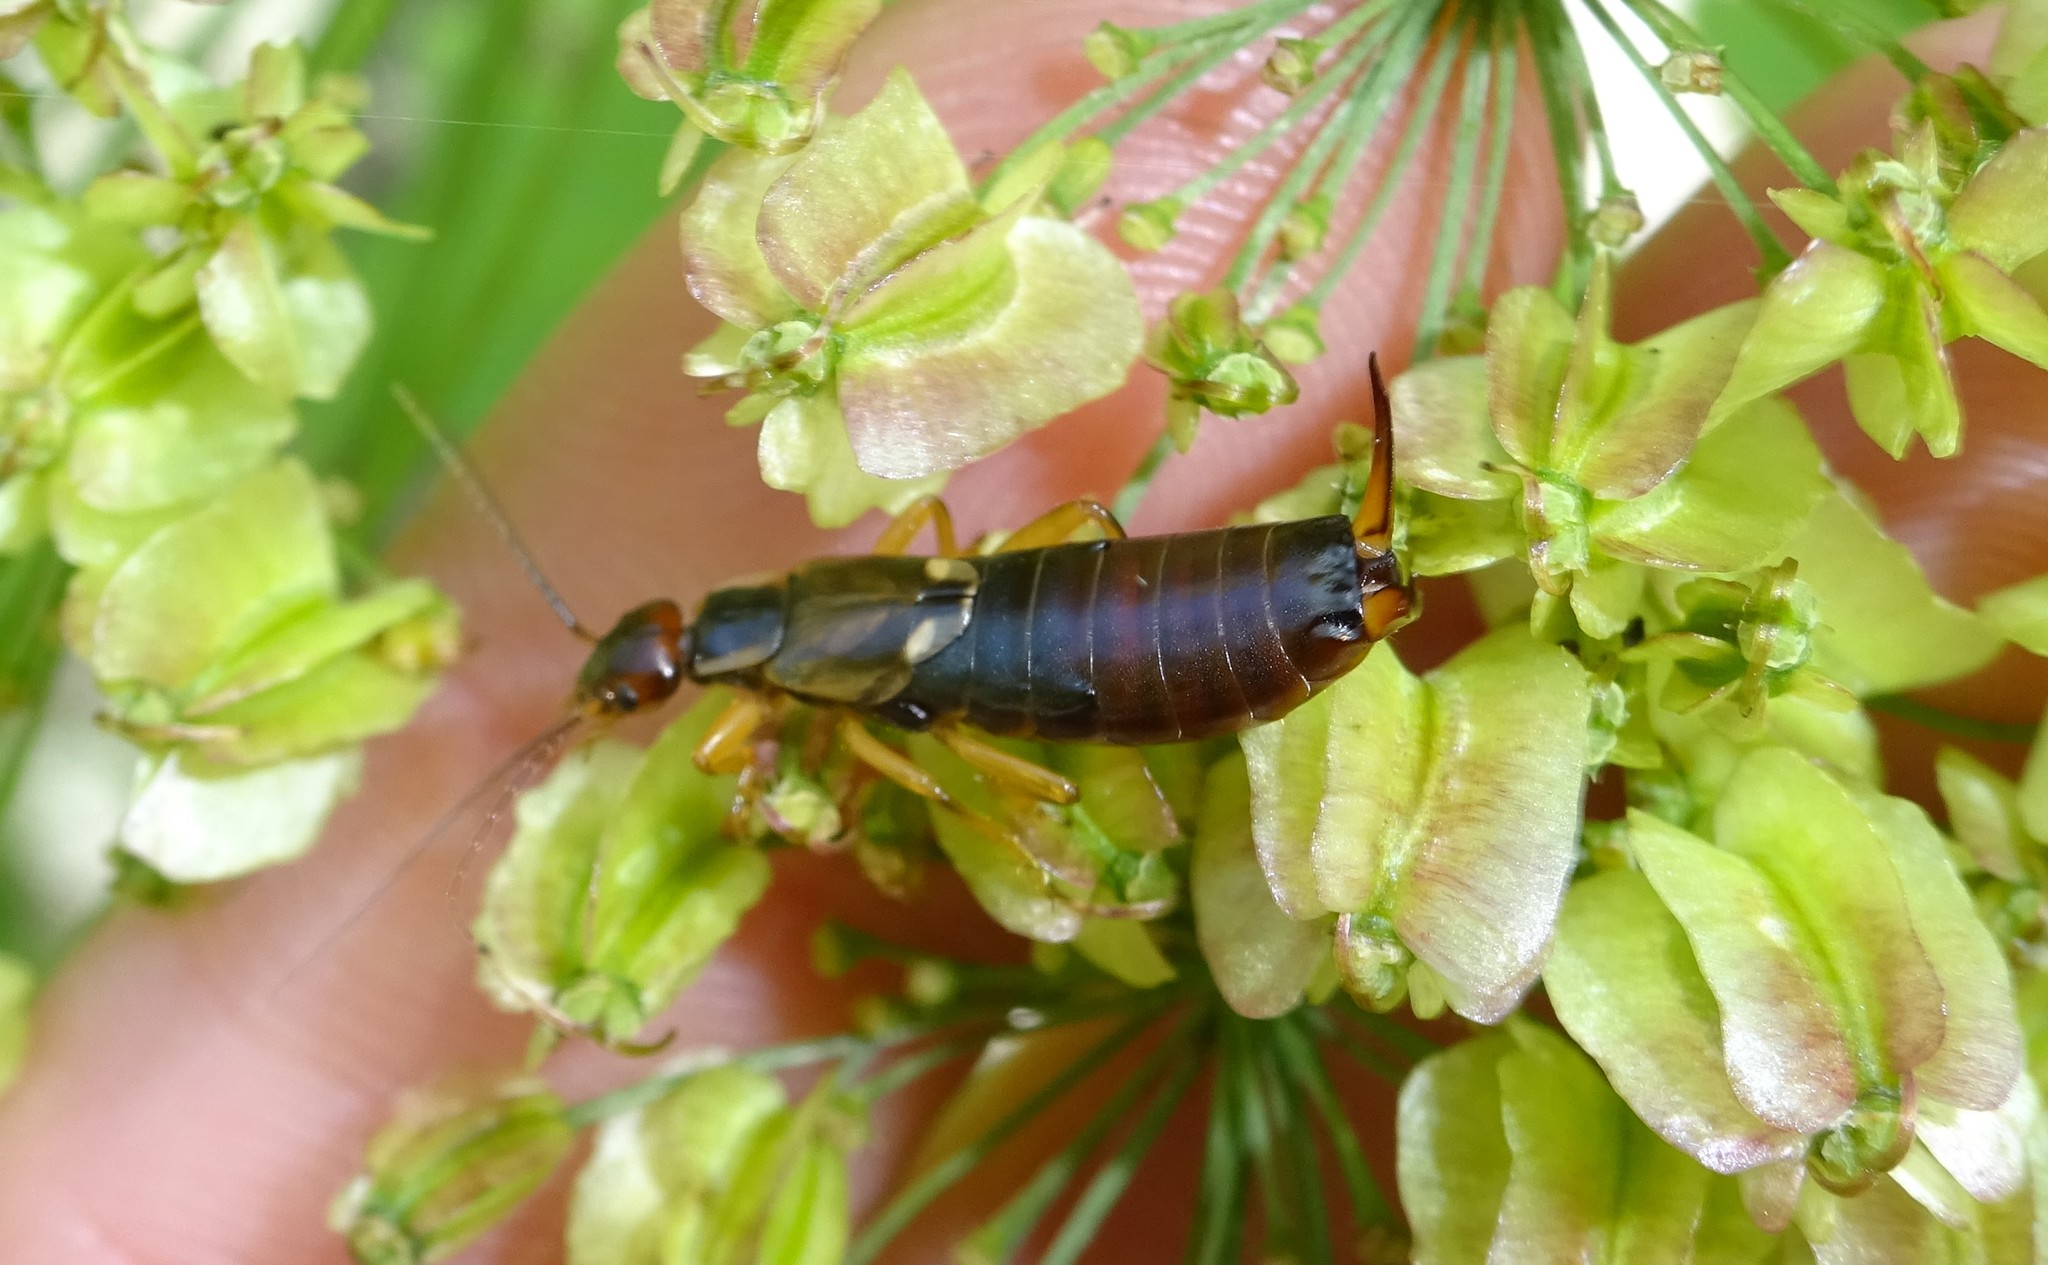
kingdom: Animalia
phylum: Arthropoda
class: Insecta
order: Dermaptera
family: Forficulidae
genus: Forficula
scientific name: Forficula
